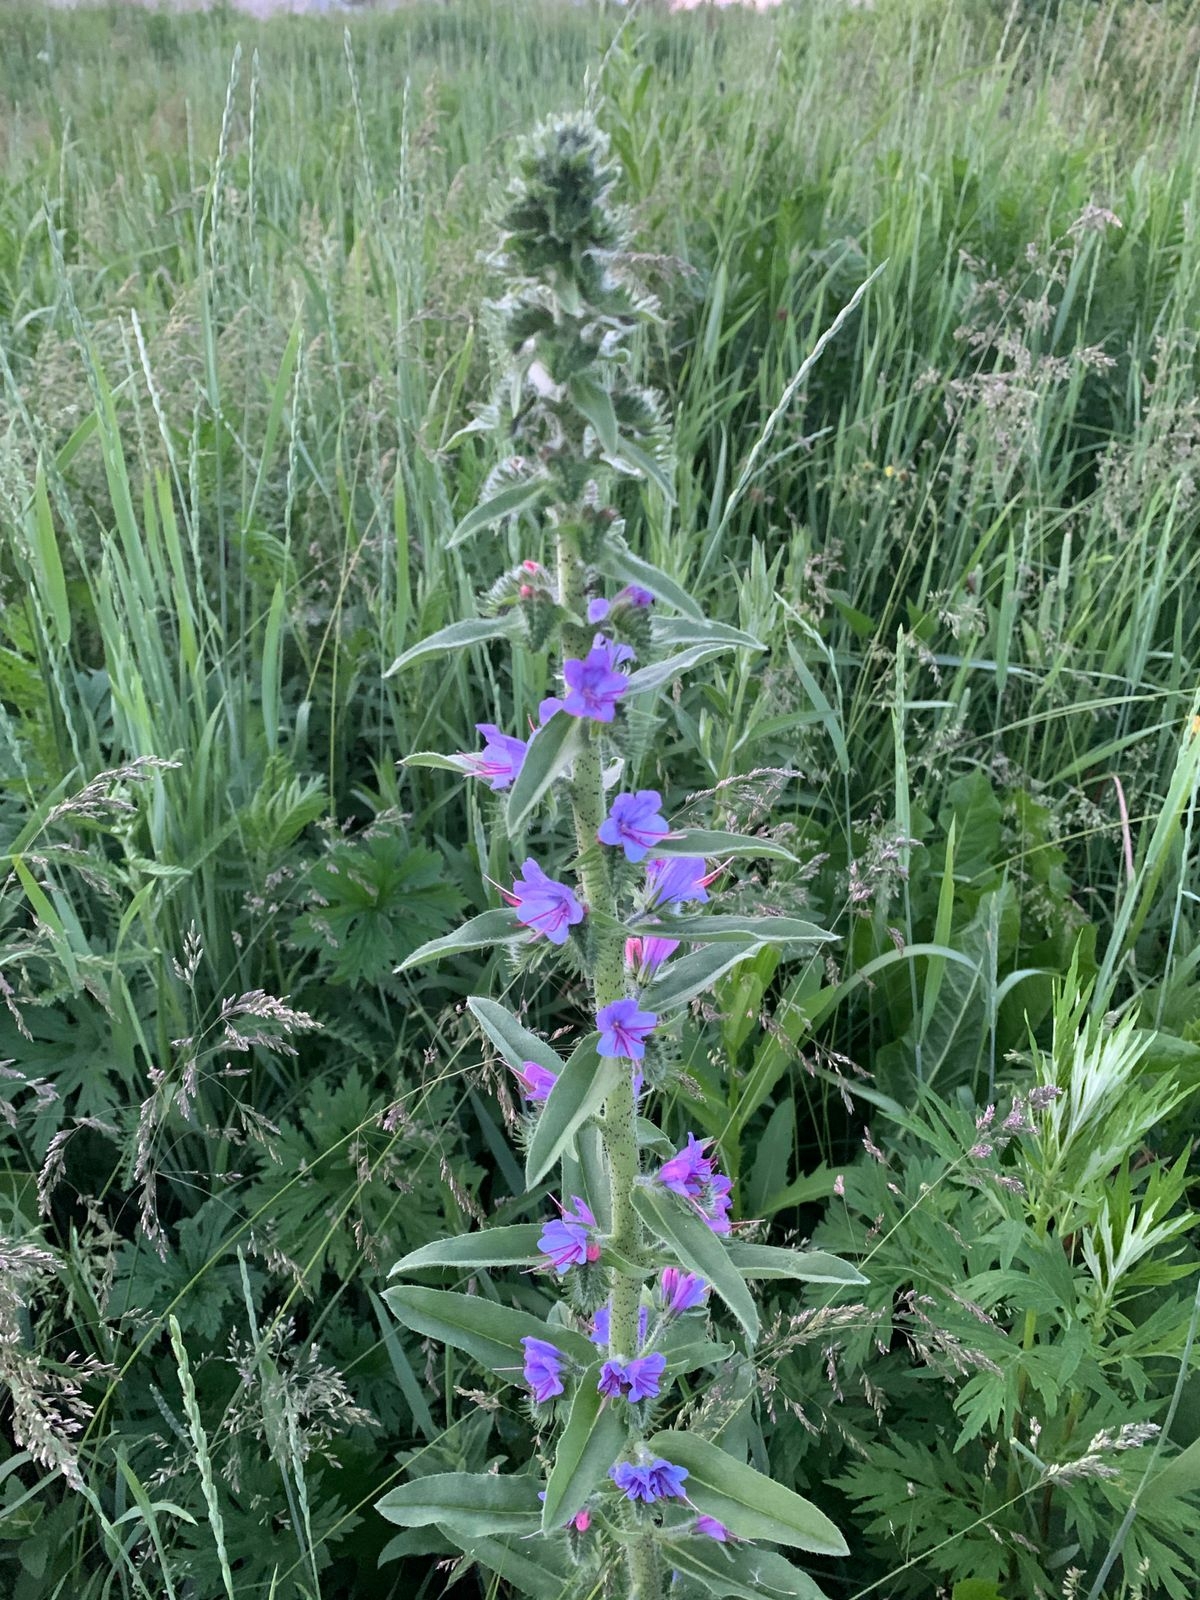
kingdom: Plantae
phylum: Tracheophyta
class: Magnoliopsida
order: Boraginales
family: Boraginaceae
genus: Echium
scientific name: Echium vulgare
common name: Common viper's bugloss
